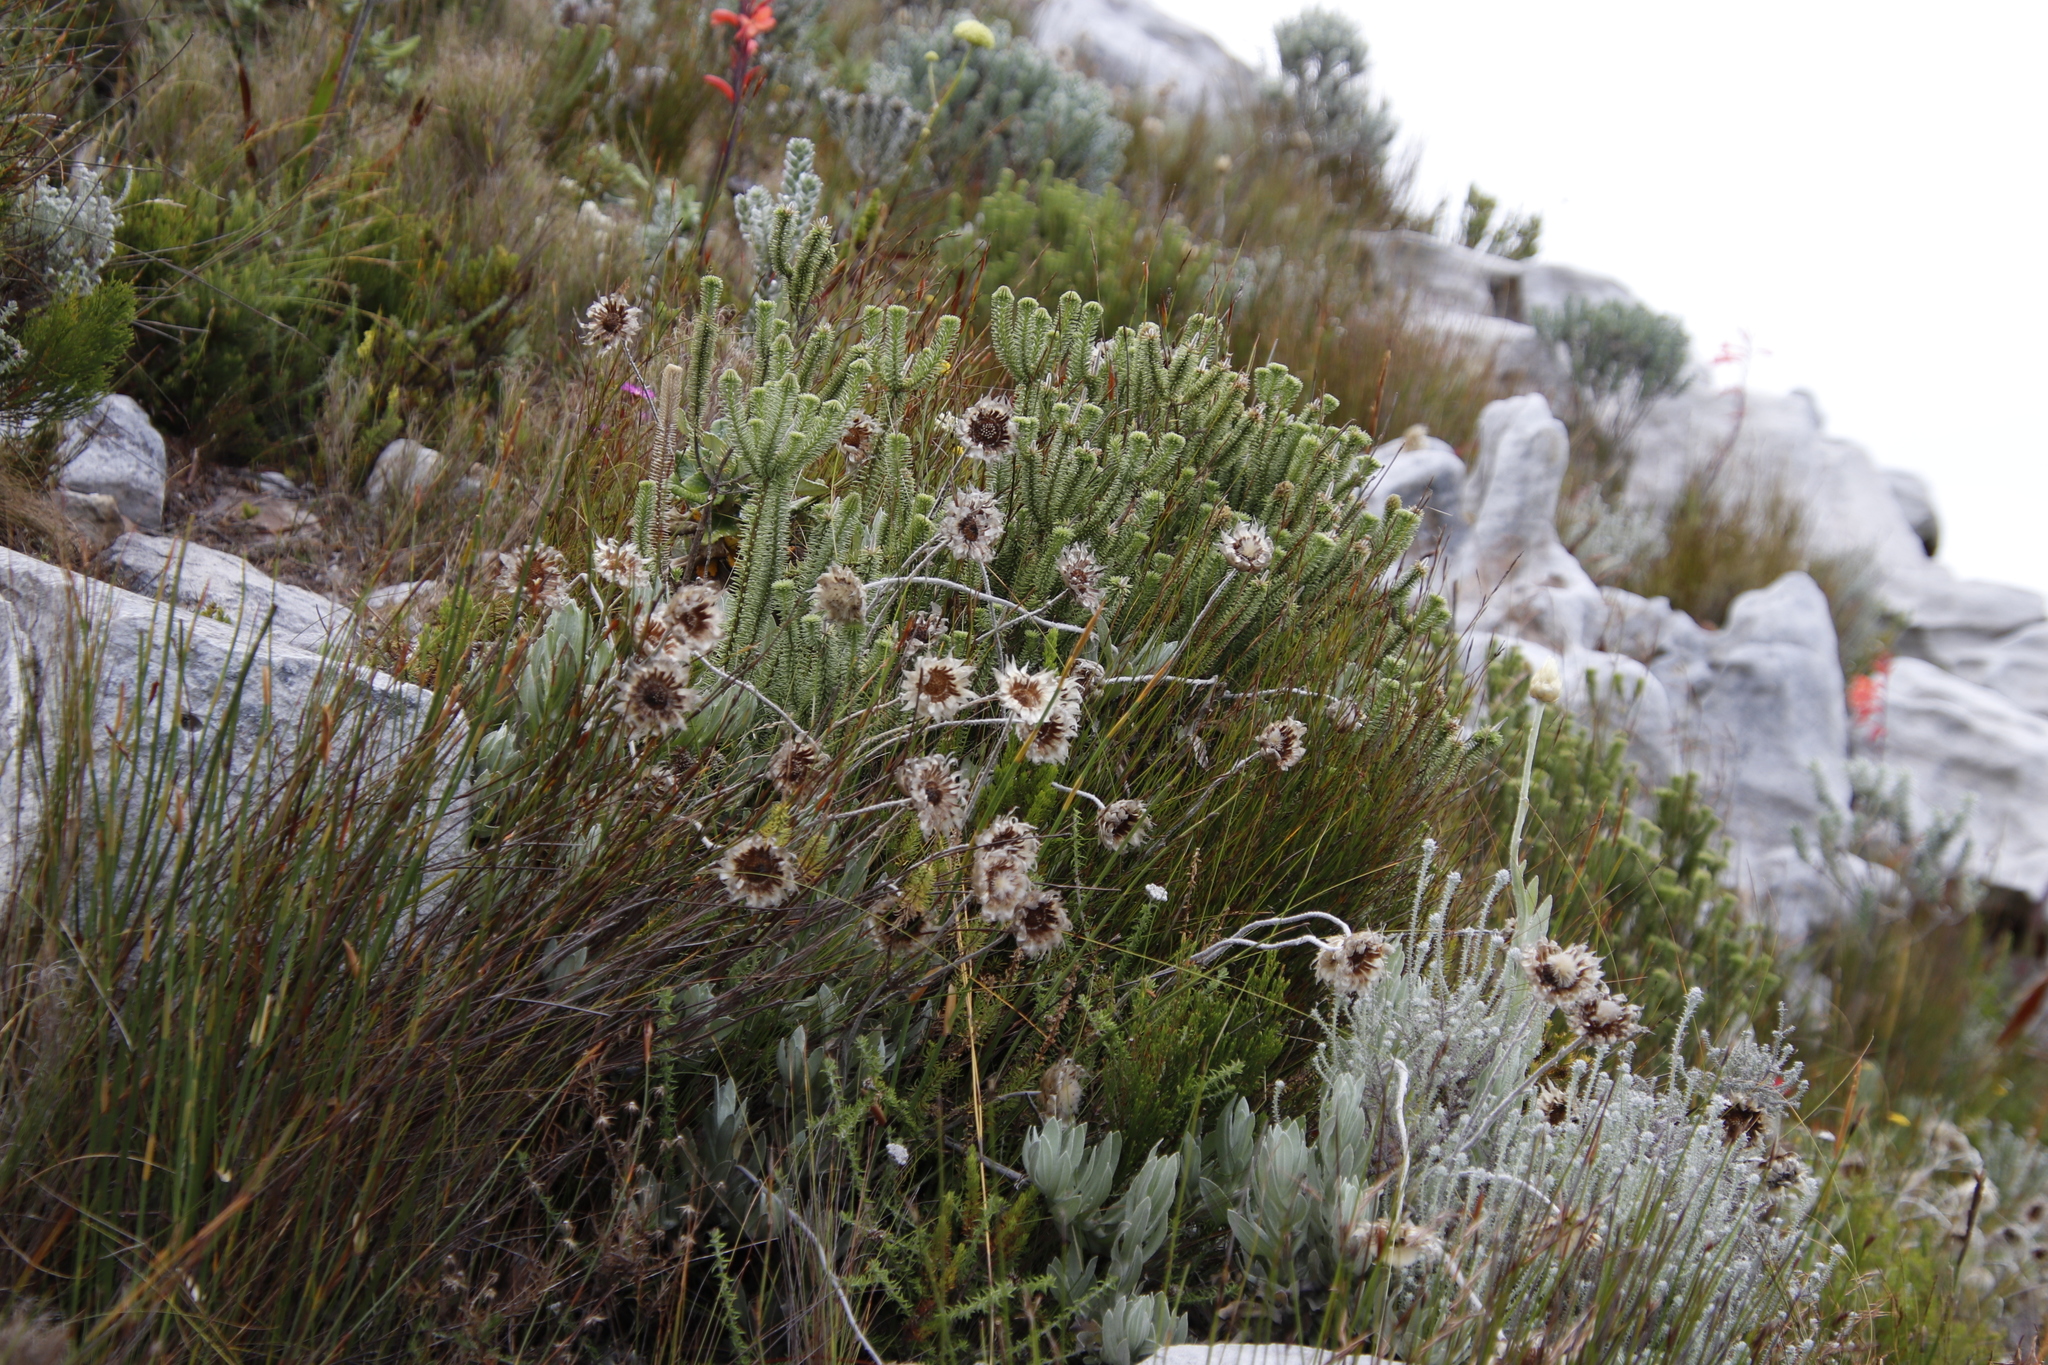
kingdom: Plantae
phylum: Tracheophyta
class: Magnoliopsida
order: Lamiales
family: Stilbaceae
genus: Stilbe
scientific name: Stilbe vestita
